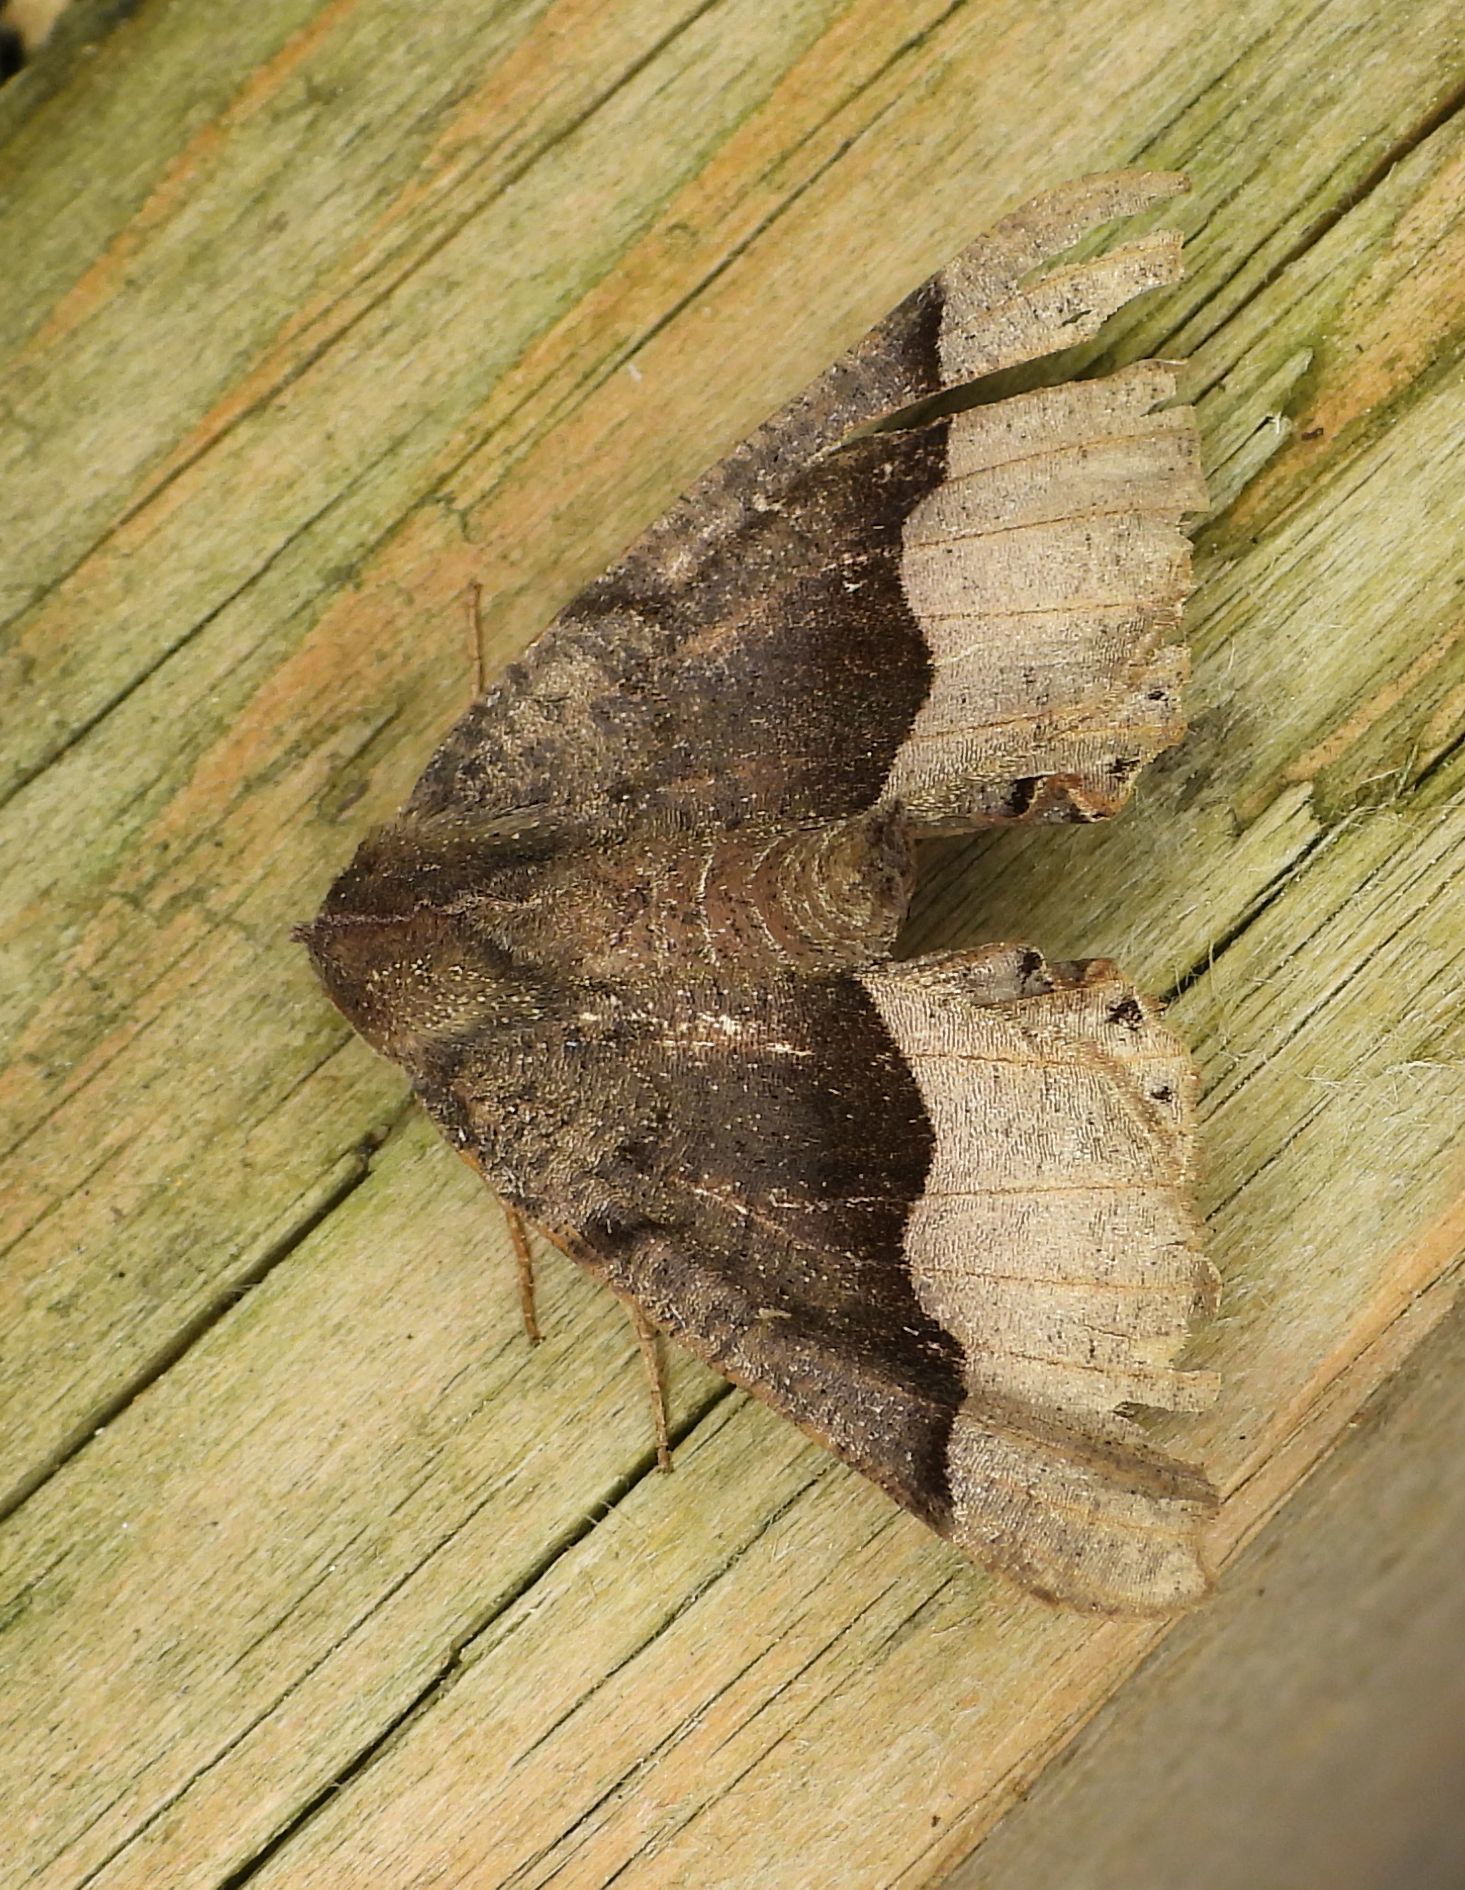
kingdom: Animalia
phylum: Arthropoda
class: Insecta
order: Lepidoptera
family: Geometridae
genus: Pero
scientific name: Pero honestaria
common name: Honest pero
